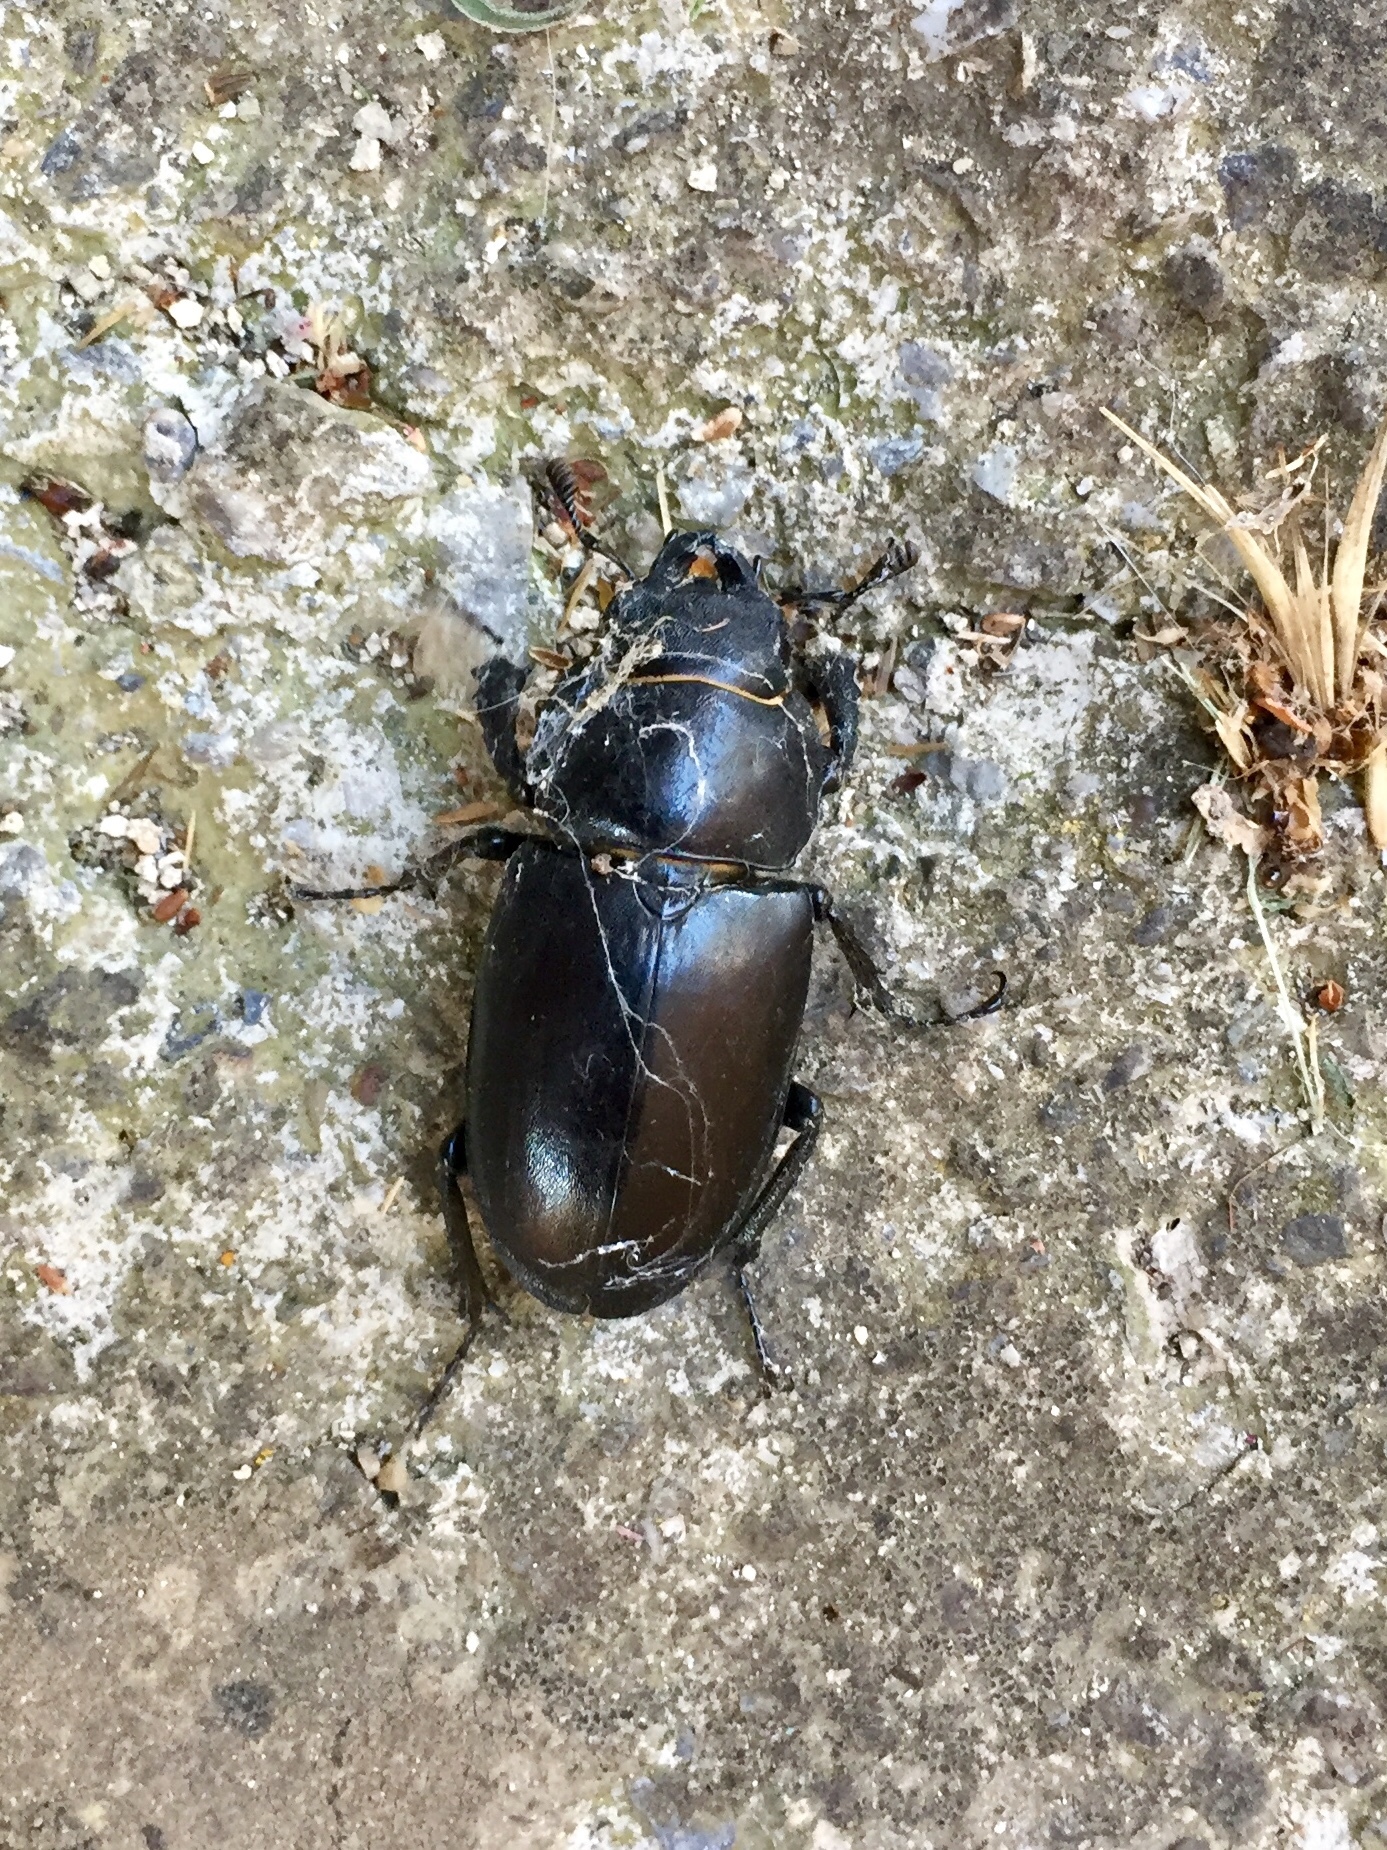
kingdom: Animalia
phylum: Arthropoda
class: Insecta
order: Coleoptera
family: Lucanidae
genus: Lucanus
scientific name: Lucanus cervus
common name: Stag beetle
